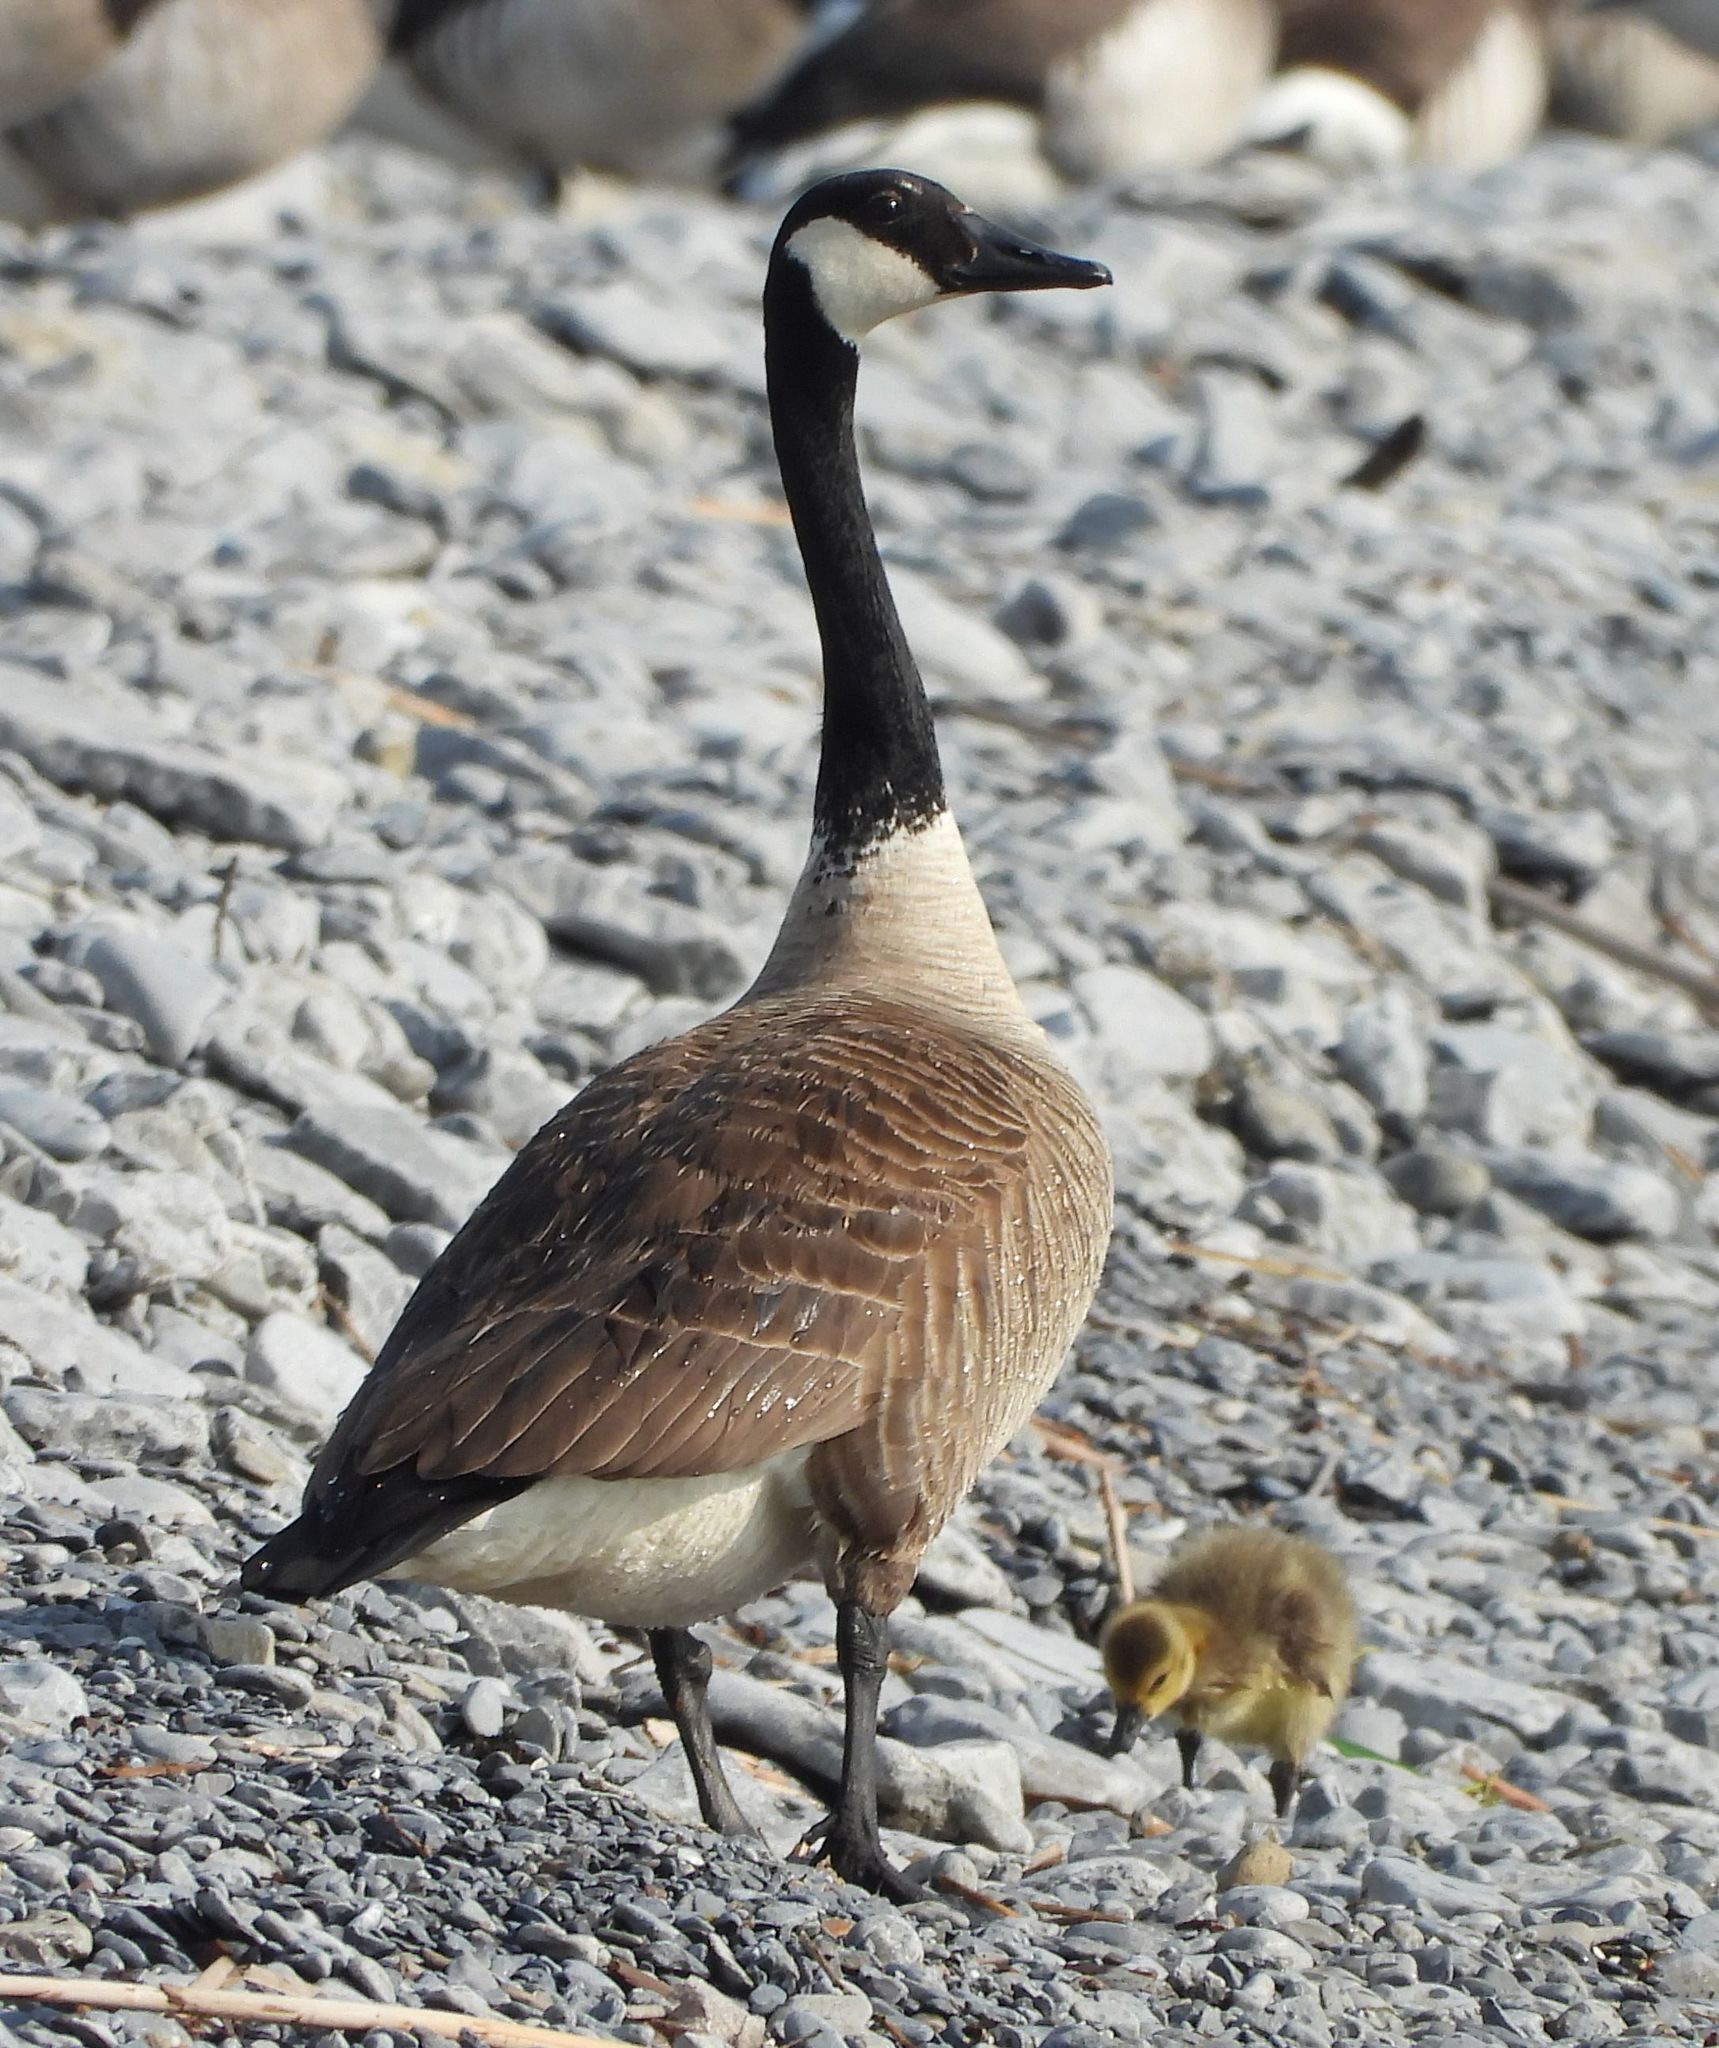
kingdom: Animalia
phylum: Chordata
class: Aves
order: Anseriformes
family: Anatidae
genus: Branta
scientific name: Branta canadensis
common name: Canada goose
